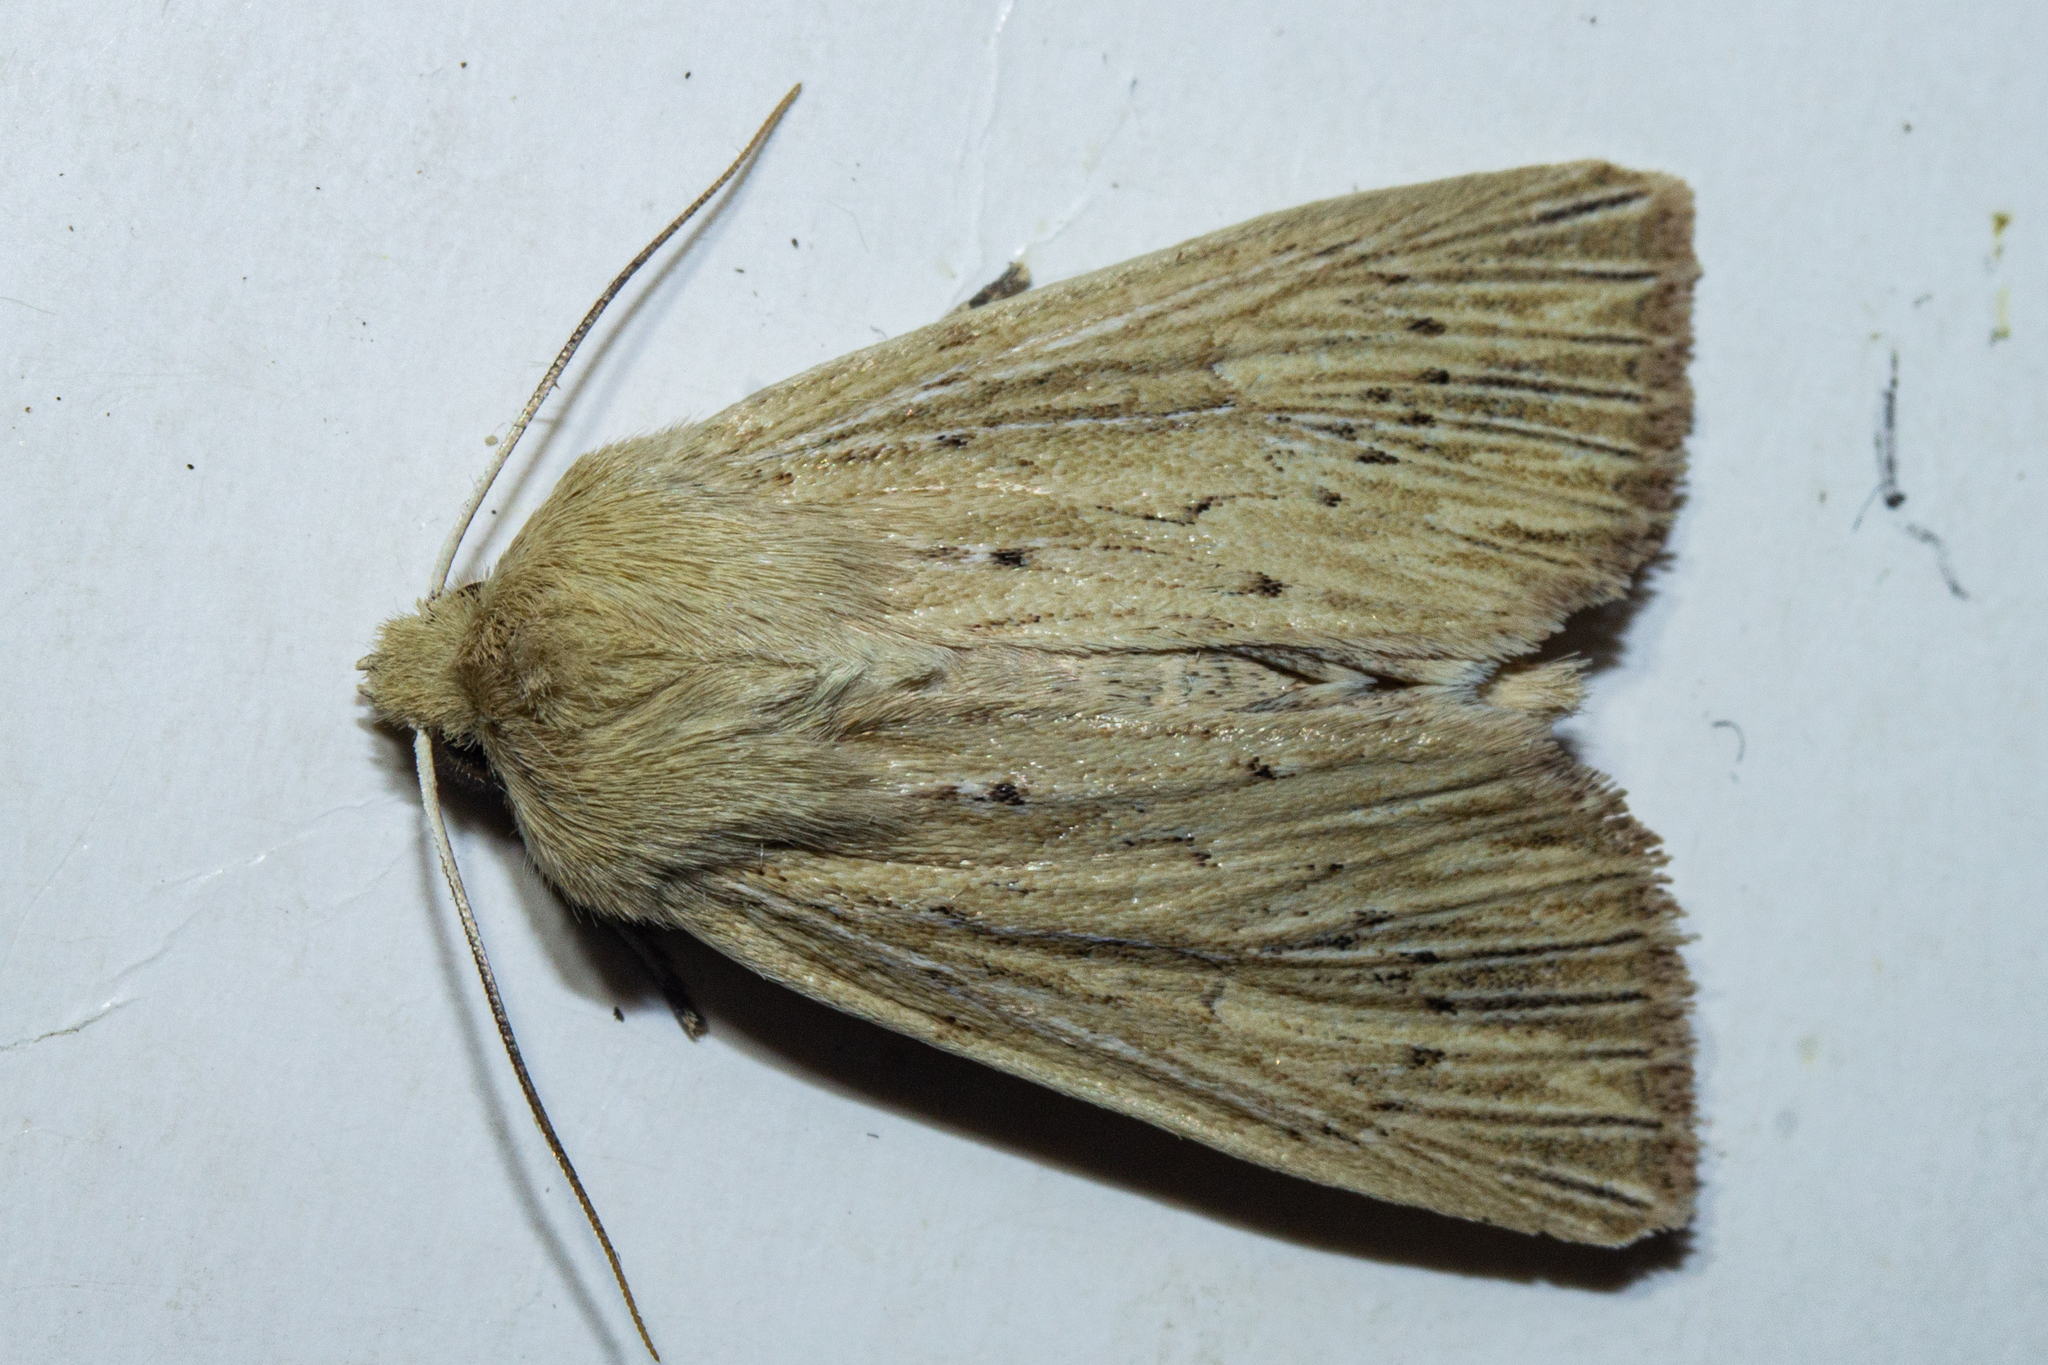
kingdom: Animalia
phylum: Arthropoda
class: Insecta
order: Lepidoptera
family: Noctuidae
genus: Ichneutica
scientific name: Ichneutica arotis
